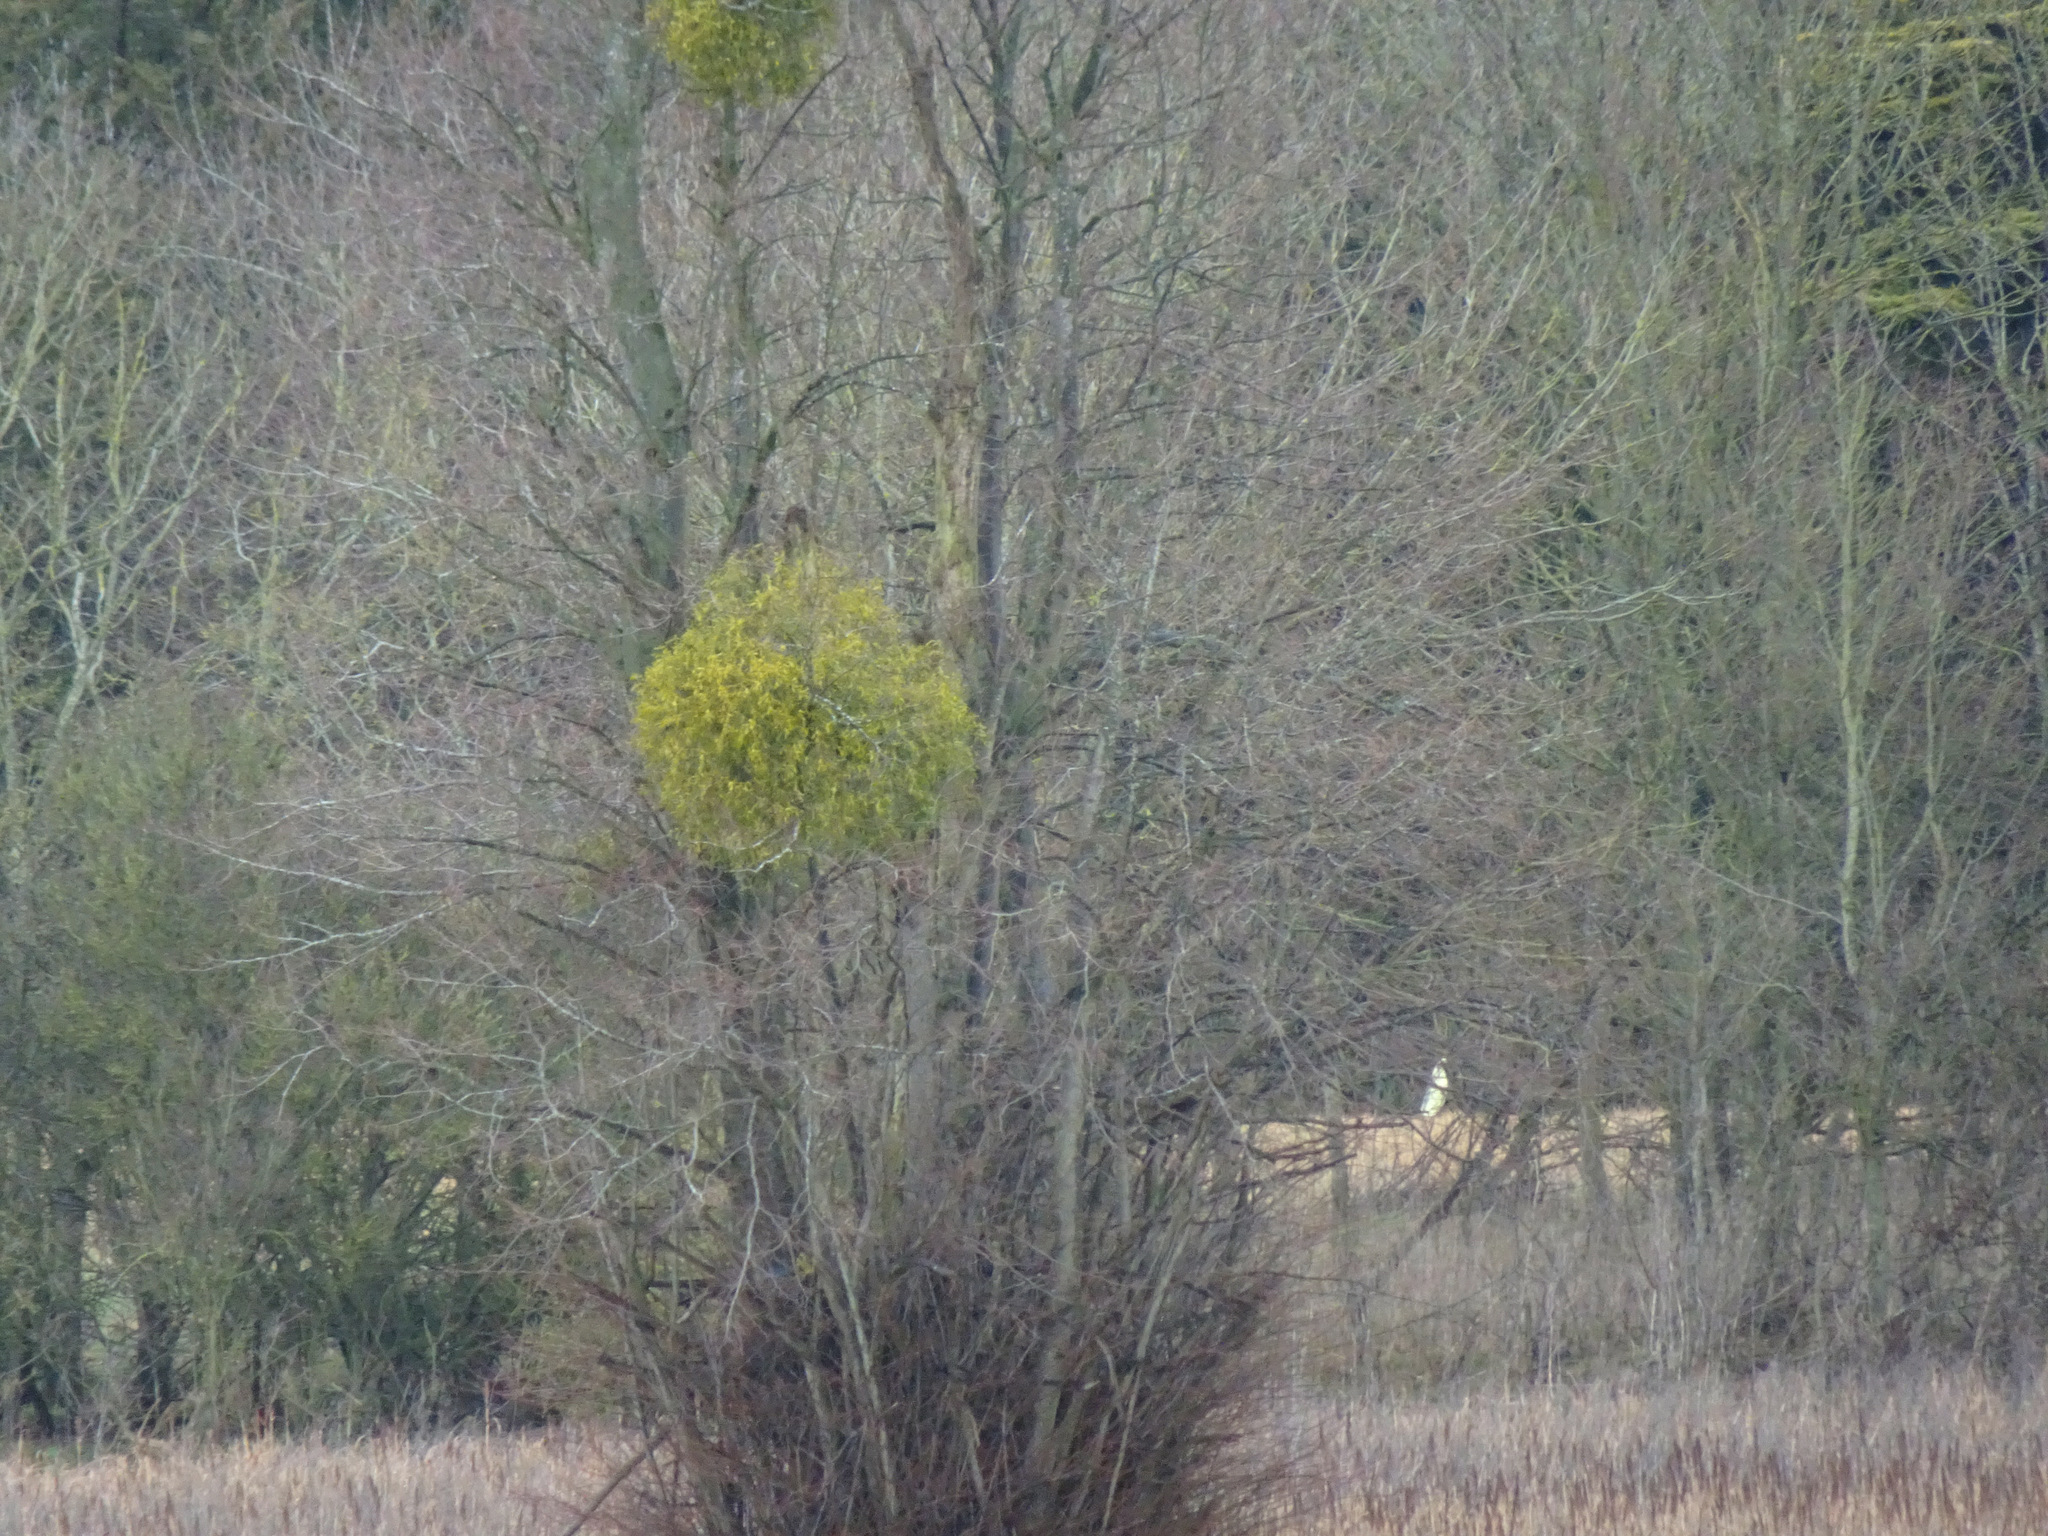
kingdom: Plantae
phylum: Tracheophyta
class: Magnoliopsida
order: Santalales
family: Viscaceae
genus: Viscum
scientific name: Viscum album
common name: Mistletoe
